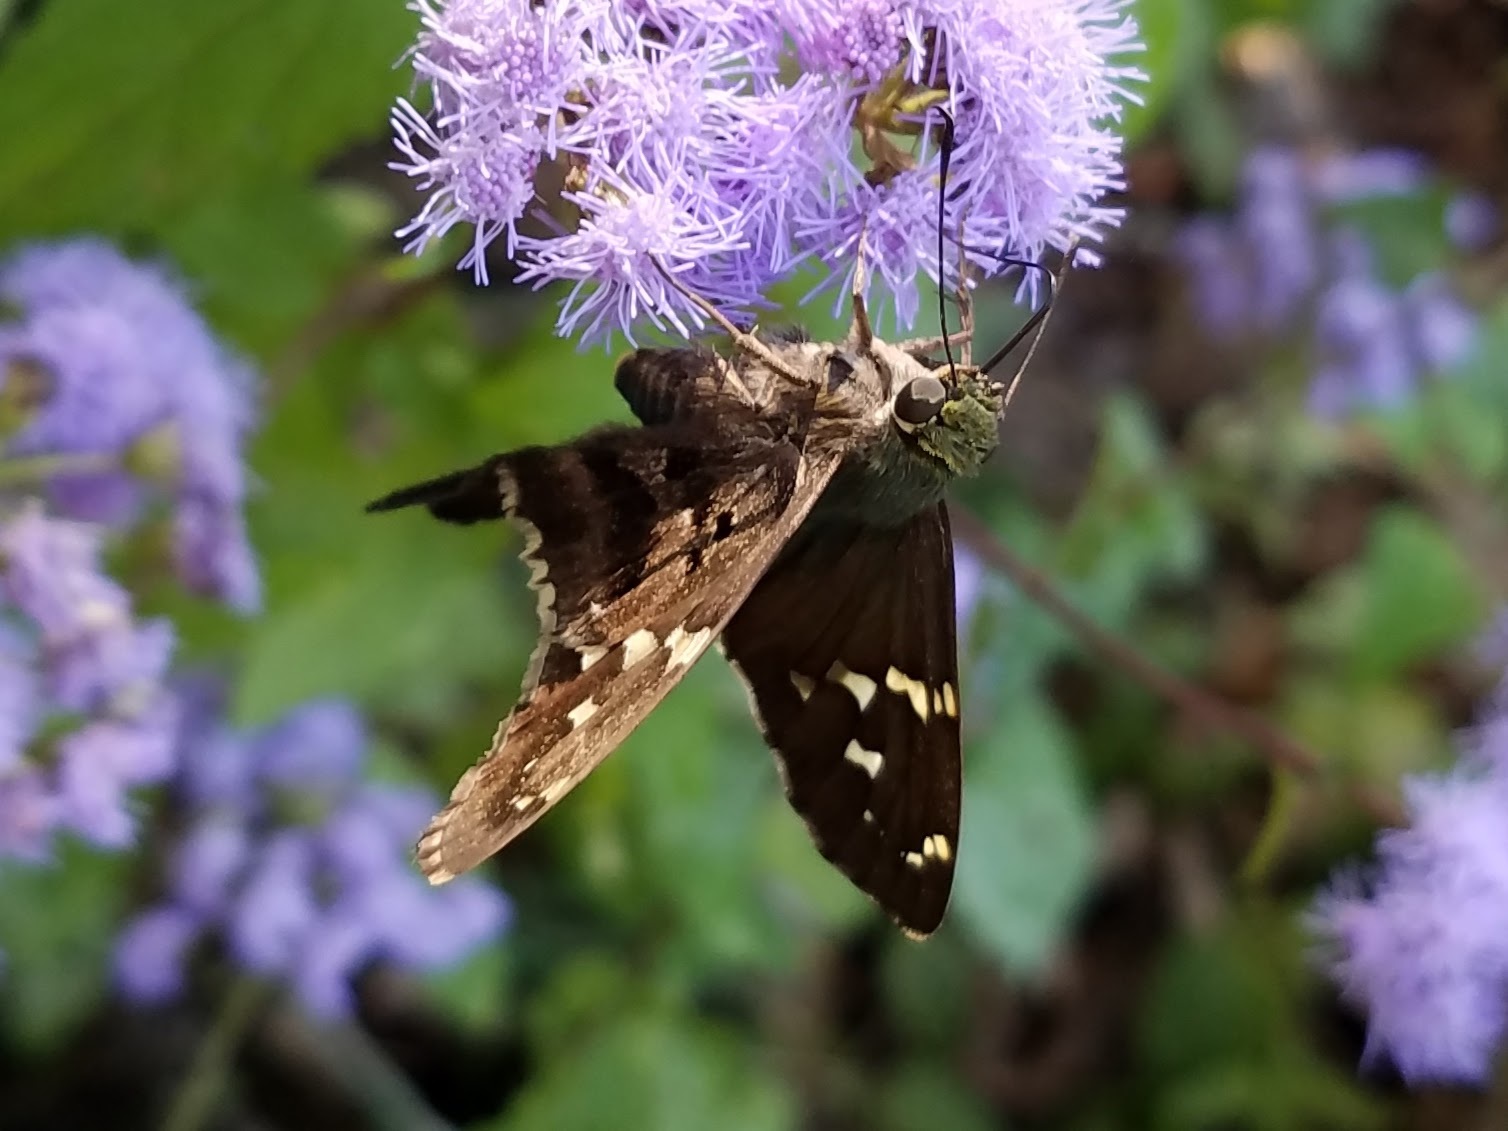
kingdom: Animalia
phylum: Arthropoda
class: Insecta
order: Lepidoptera
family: Hesperiidae
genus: Urbanus
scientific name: Urbanus proteus
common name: Long-tailed skipper
